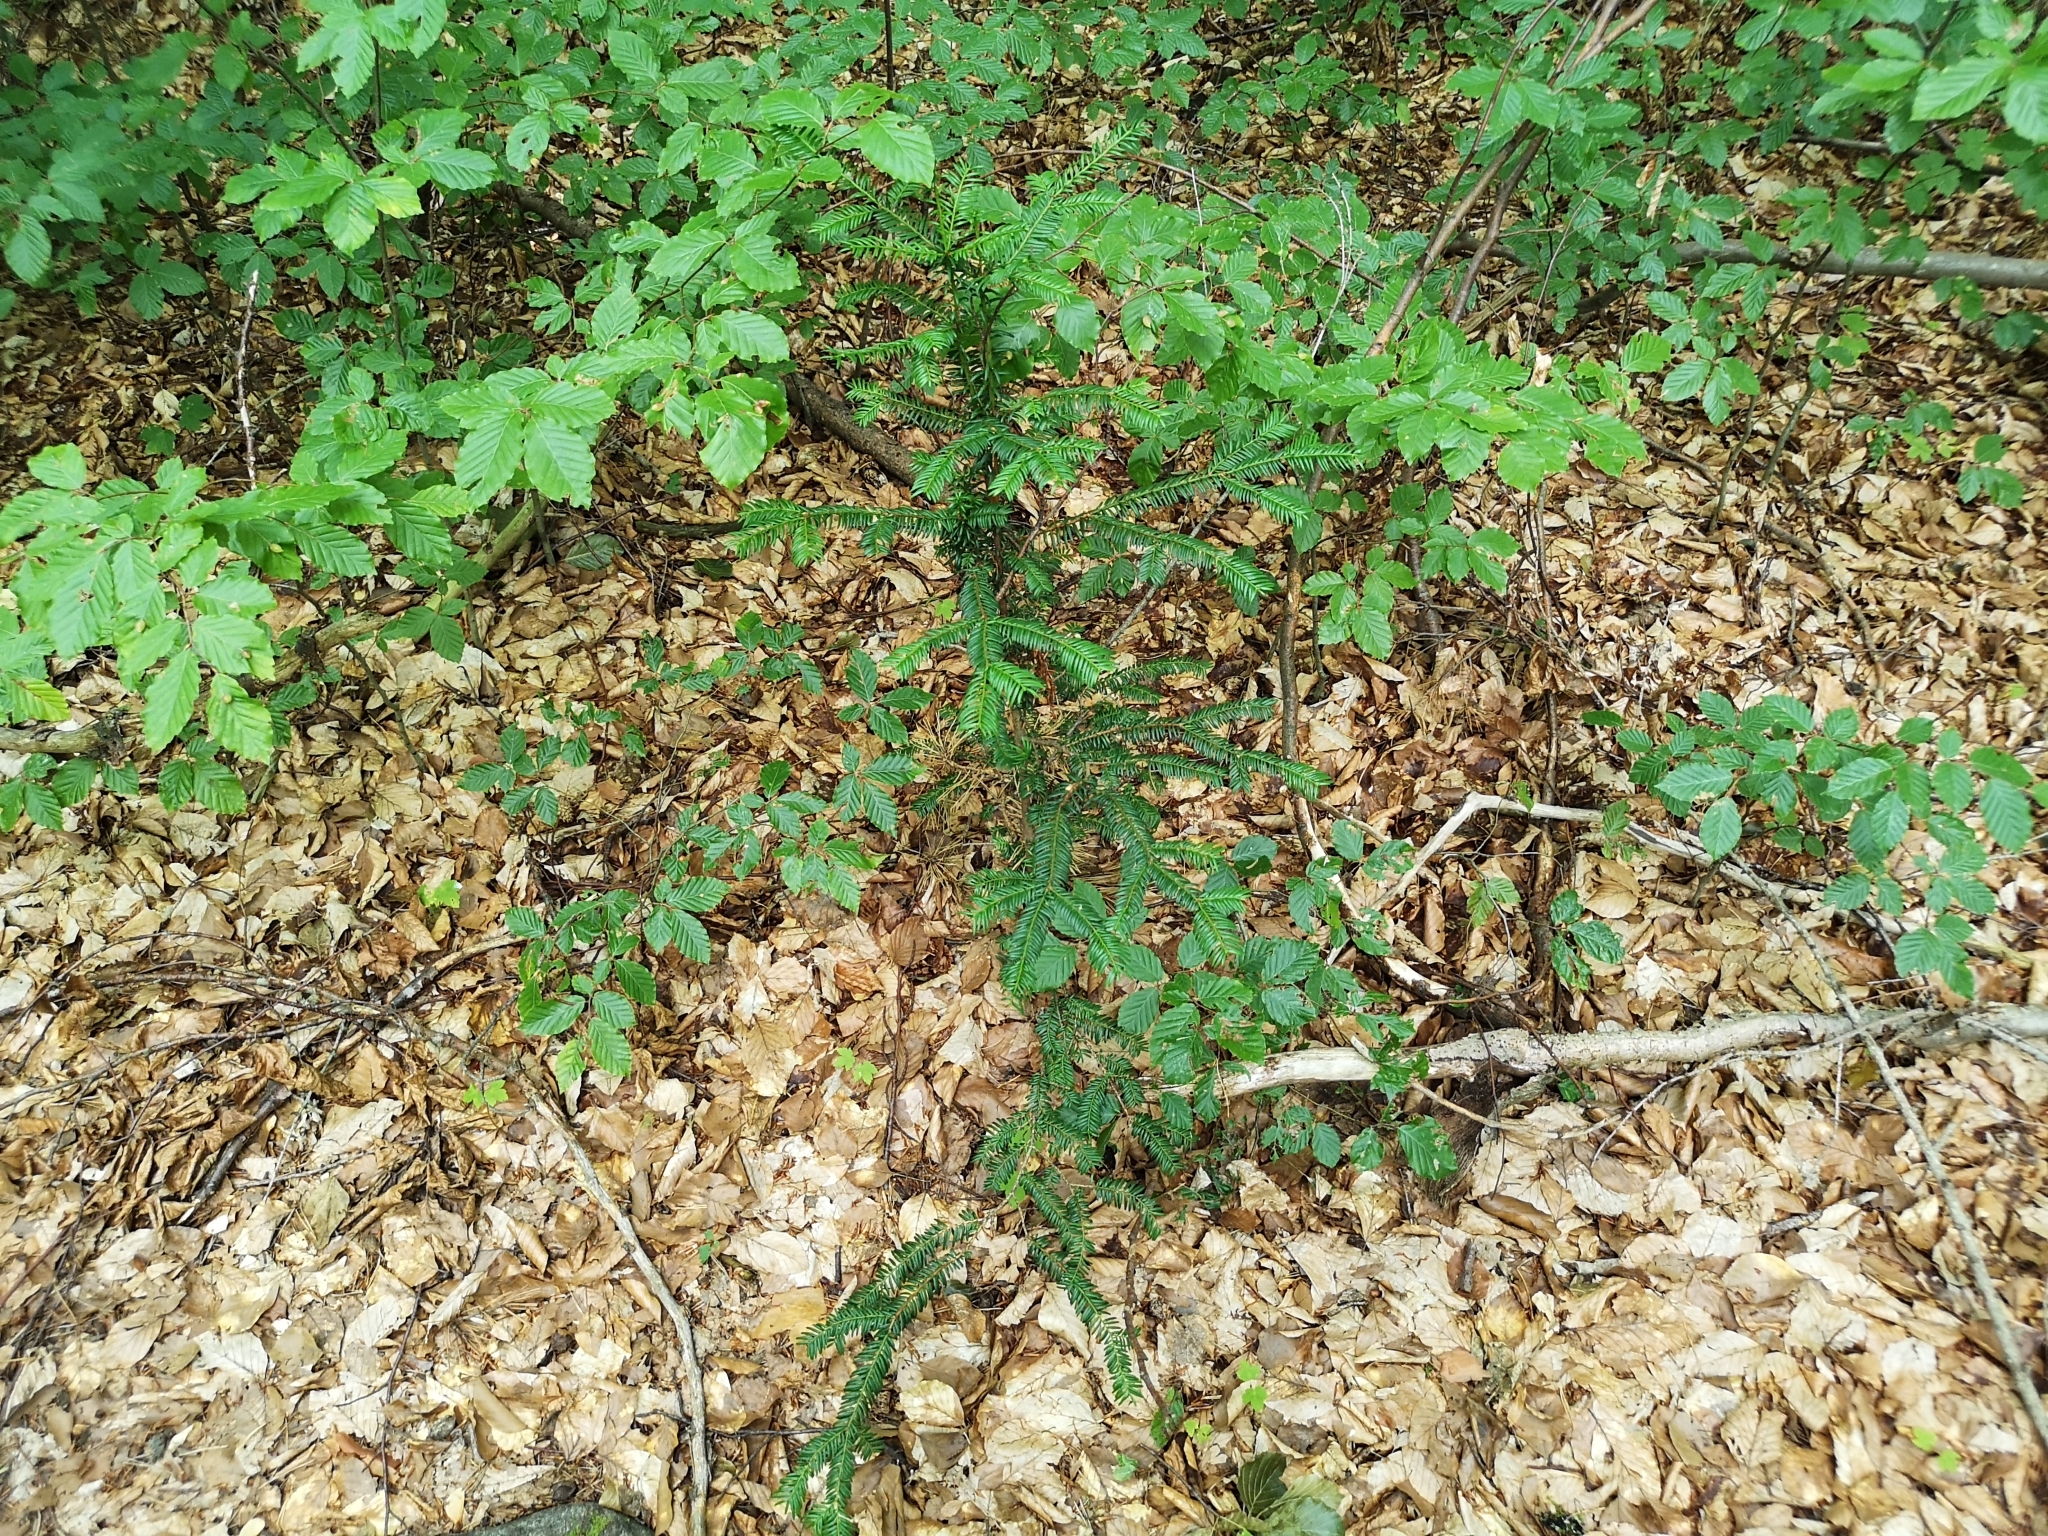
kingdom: Plantae
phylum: Tracheophyta
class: Pinopsida
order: Pinales
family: Taxaceae
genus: Taxus
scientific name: Taxus baccata
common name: Yew
